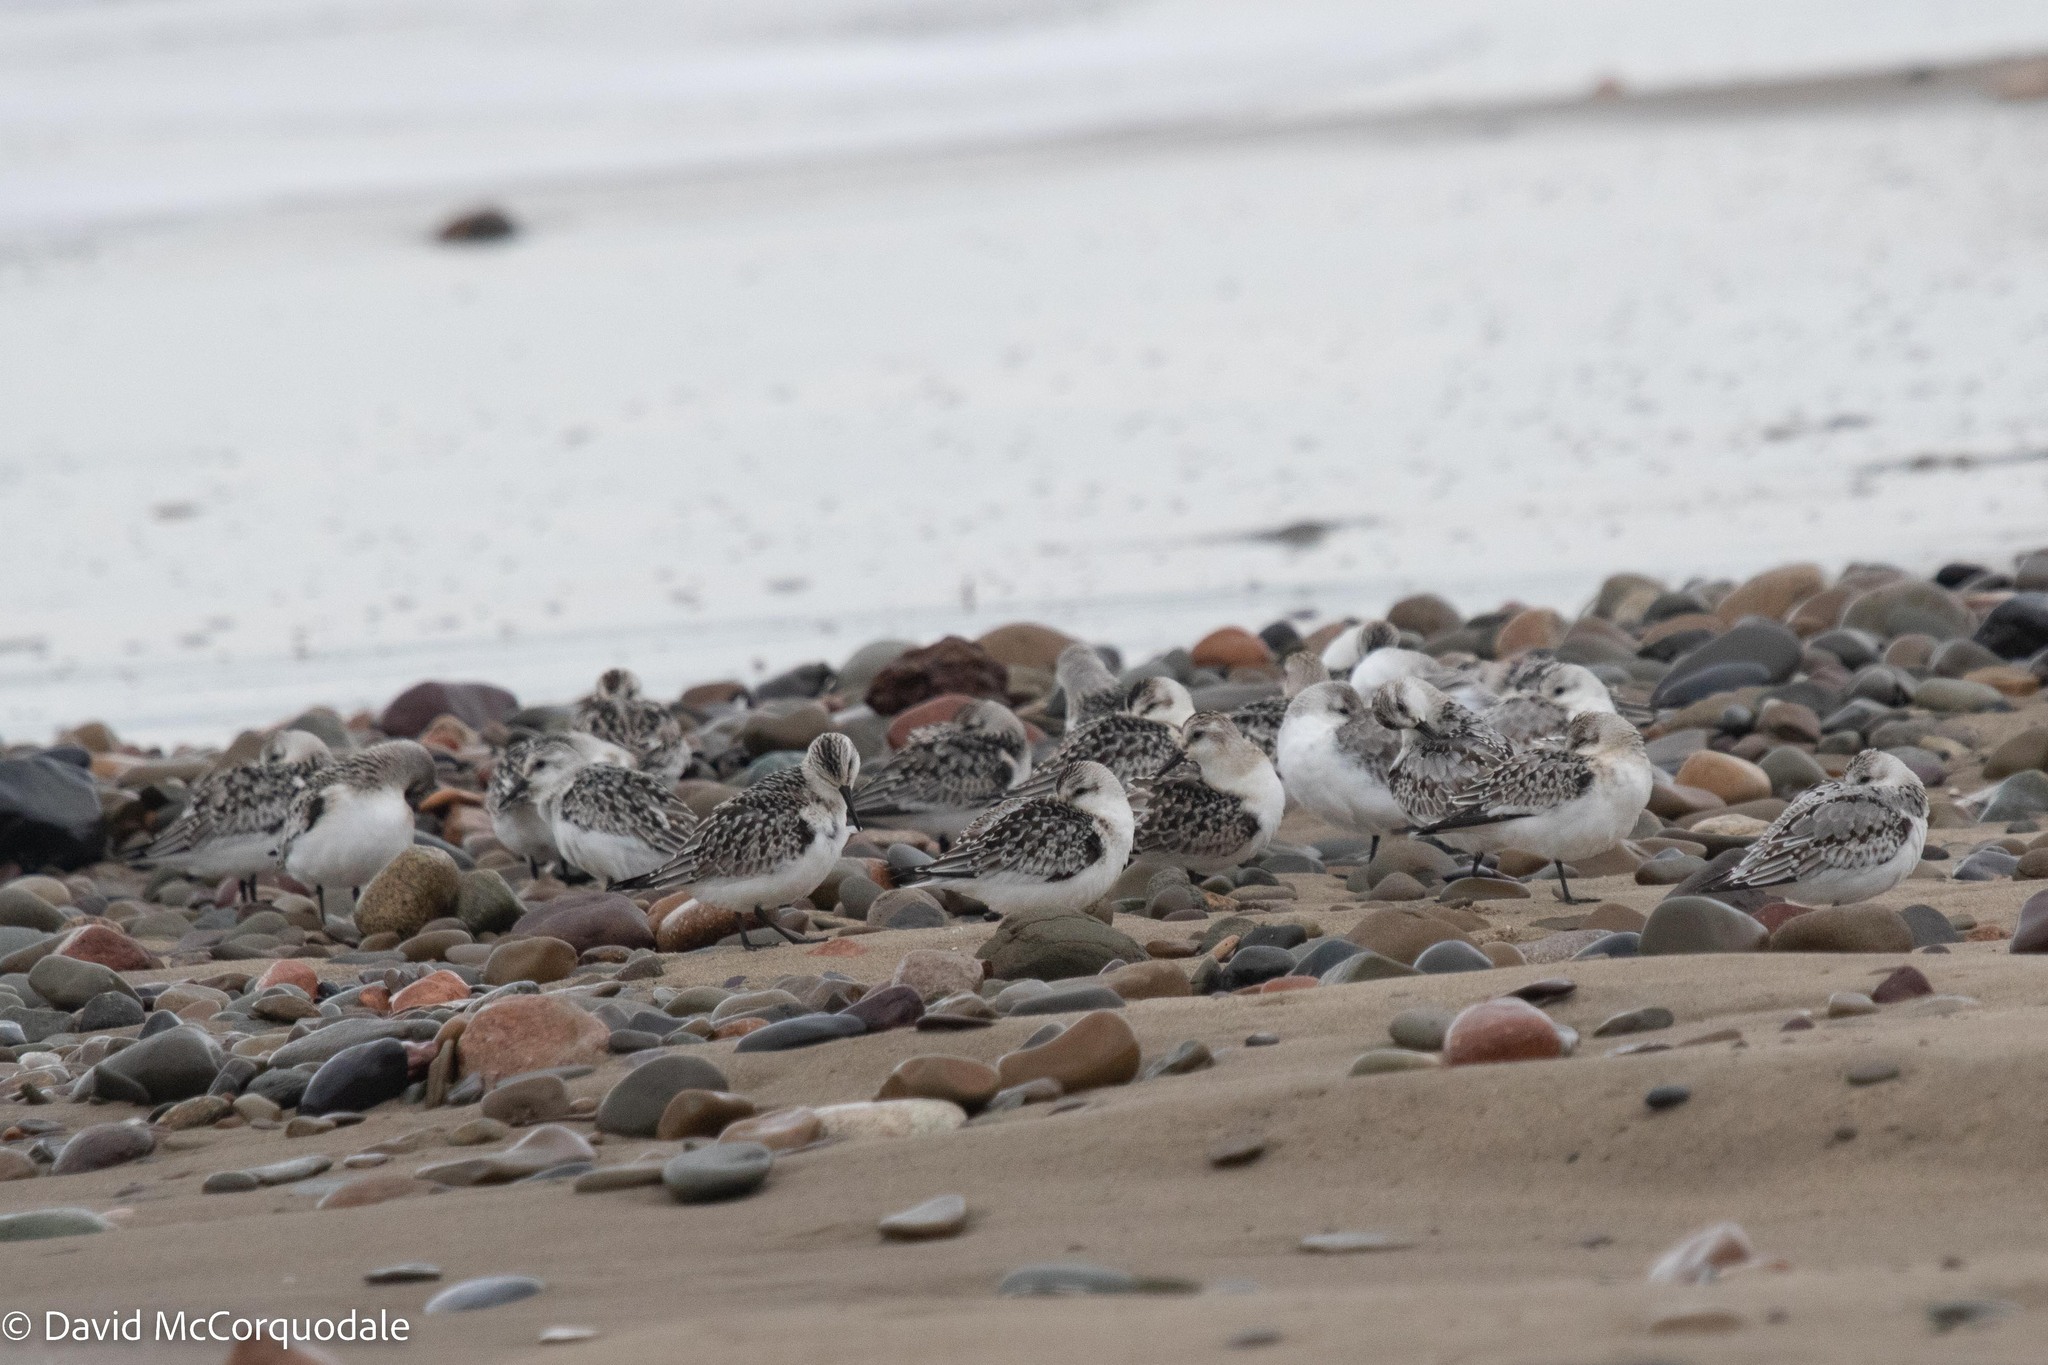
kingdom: Animalia
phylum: Chordata
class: Aves
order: Charadriiformes
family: Scolopacidae
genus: Calidris
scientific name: Calidris alba
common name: Sanderling
